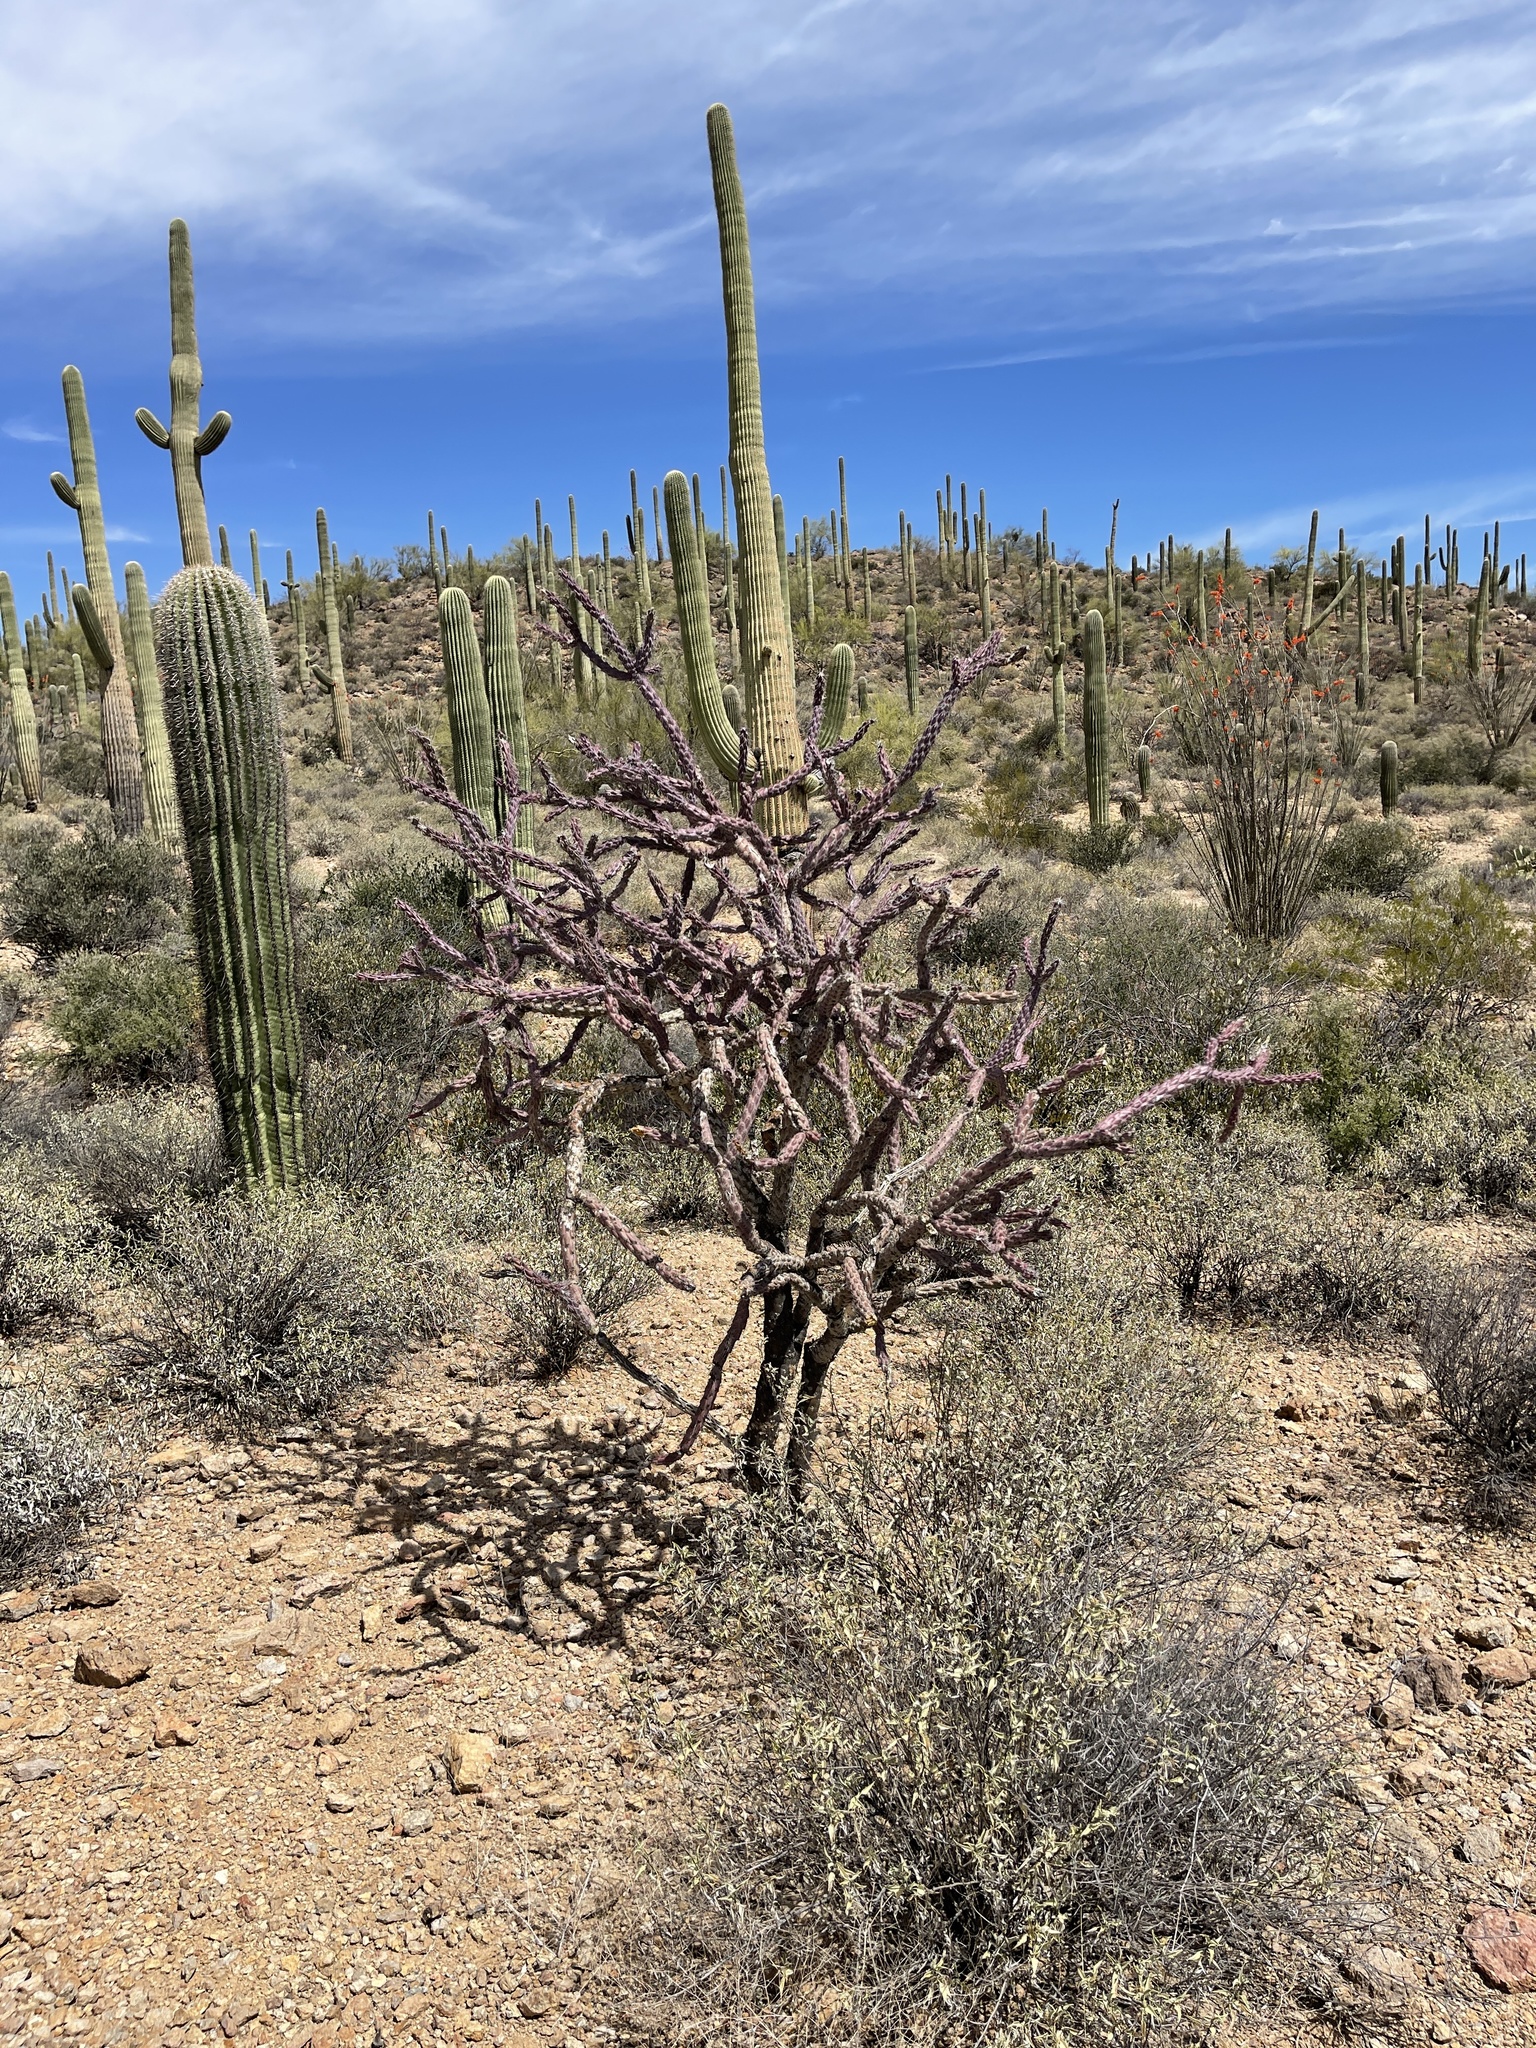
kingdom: Plantae
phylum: Tracheophyta
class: Magnoliopsida
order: Caryophyllales
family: Cactaceae
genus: Cylindropuntia
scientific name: Cylindropuntia thurberi
